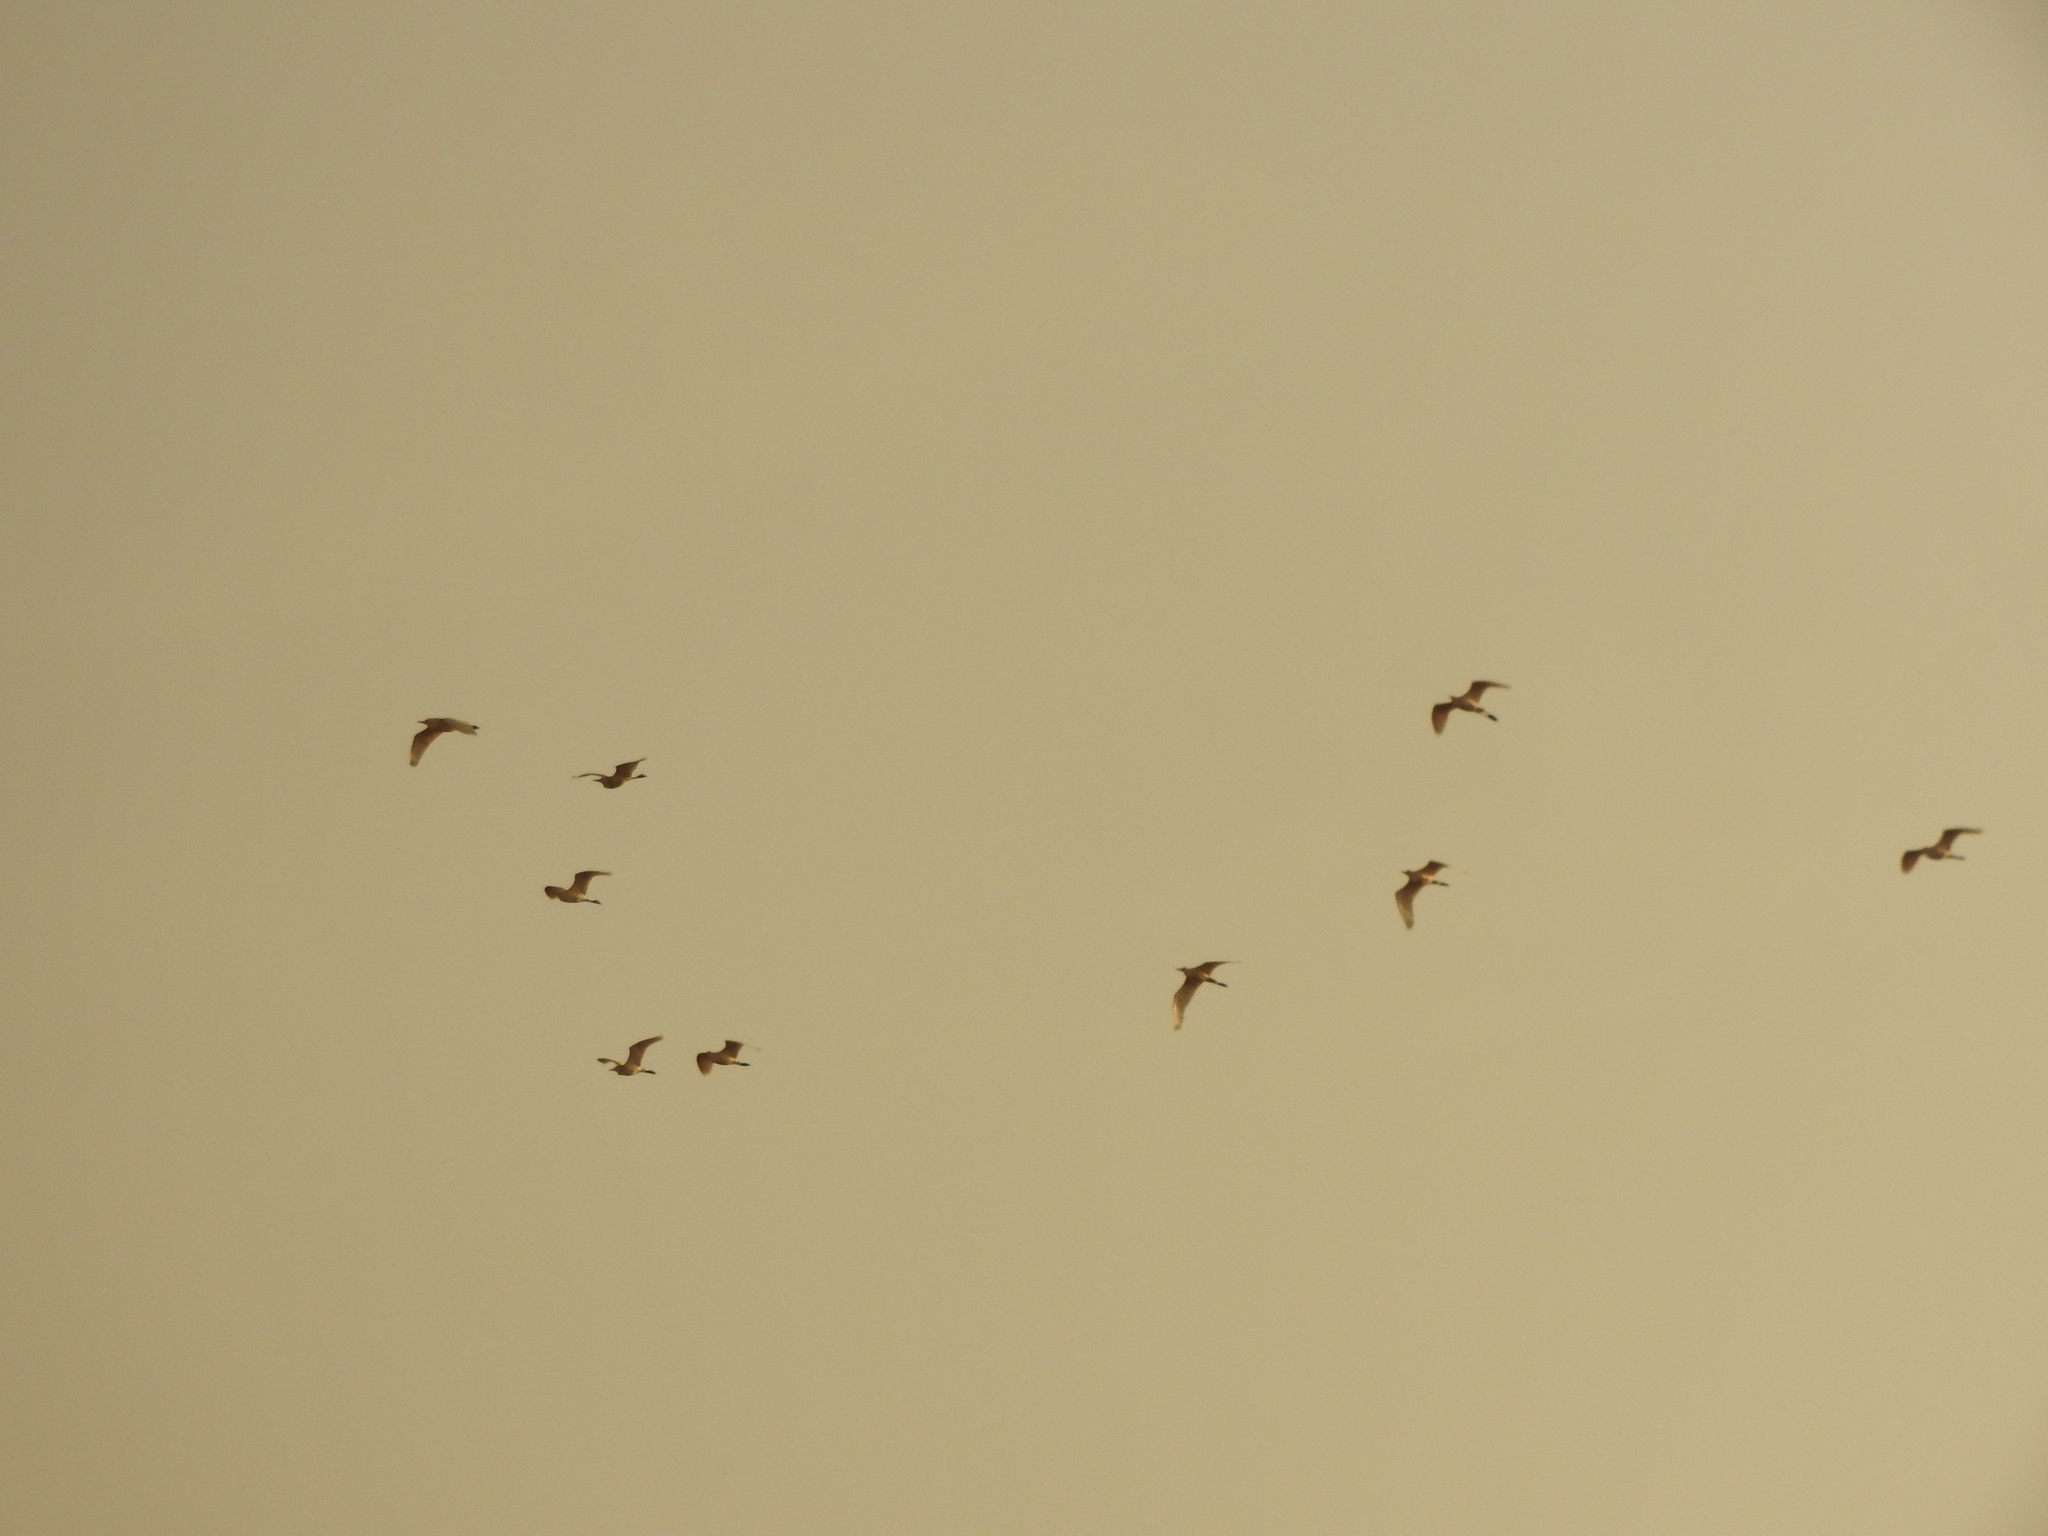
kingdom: Animalia
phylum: Chordata
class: Aves
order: Pelecaniformes
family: Ardeidae
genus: Bubulcus
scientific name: Bubulcus ibis
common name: Cattle egret
